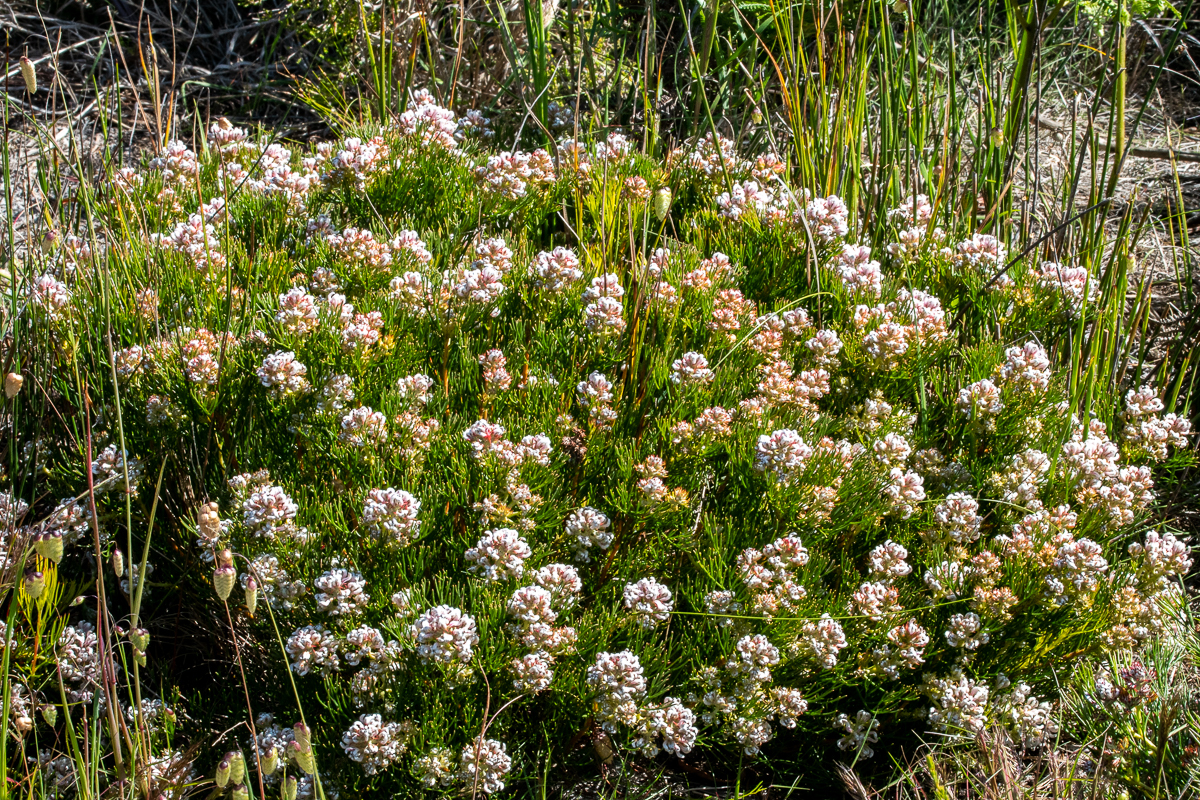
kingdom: Plantae
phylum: Tracheophyta
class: Magnoliopsida
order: Proteales
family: Proteaceae
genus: Serruria
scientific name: Serruria rubricaulis
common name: Red-stem spiderhead
